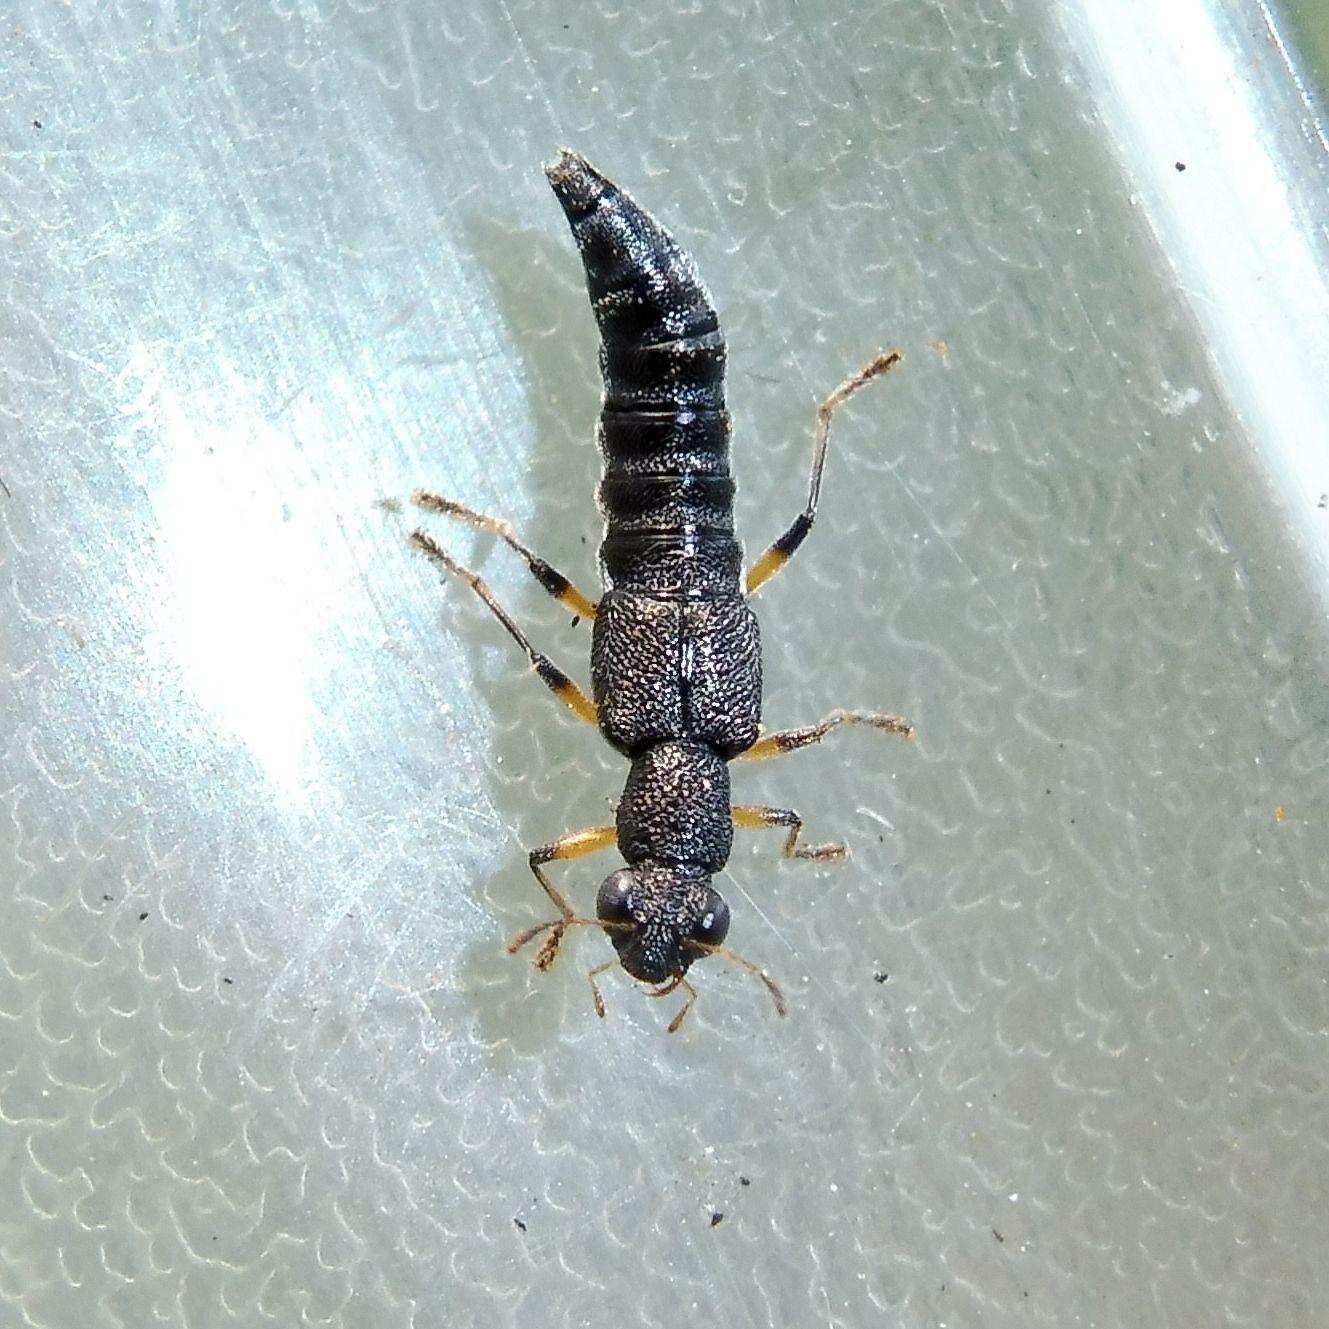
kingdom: Animalia
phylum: Arthropoda
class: Insecta
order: Coleoptera
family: Staphylinidae
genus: Stenus
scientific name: Stenus cicindeloides
